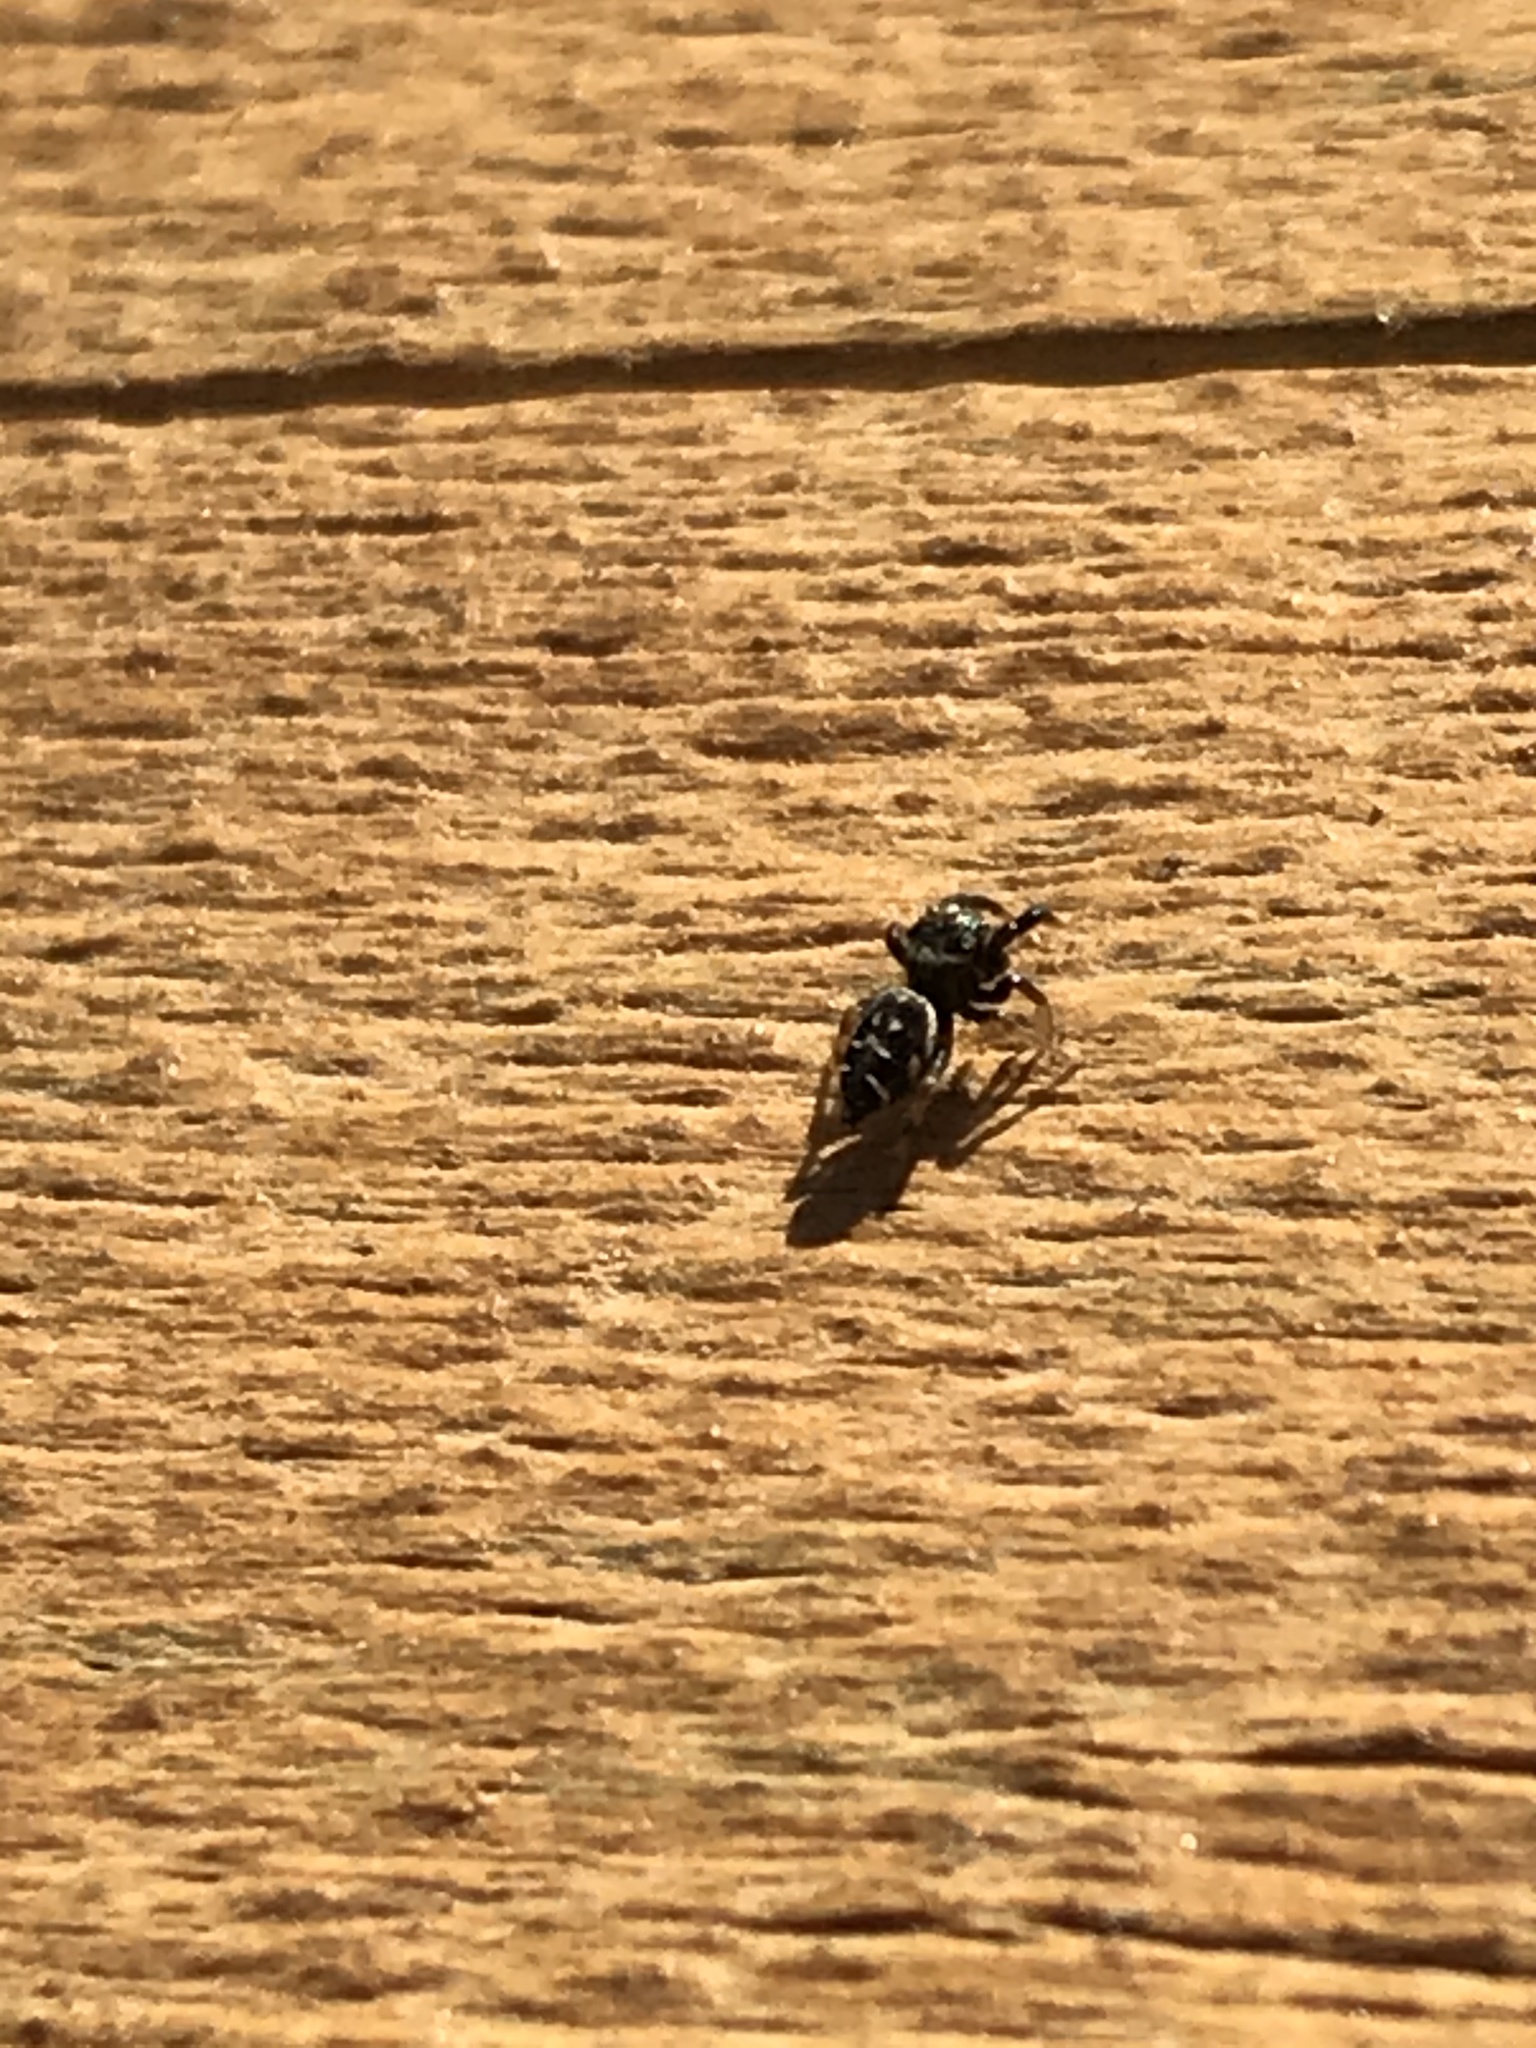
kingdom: Animalia
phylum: Arthropoda
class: Arachnida
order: Araneae
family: Salticidae
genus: Paraphidippus
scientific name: Paraphidippus aurantius
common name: Jumping spiders
